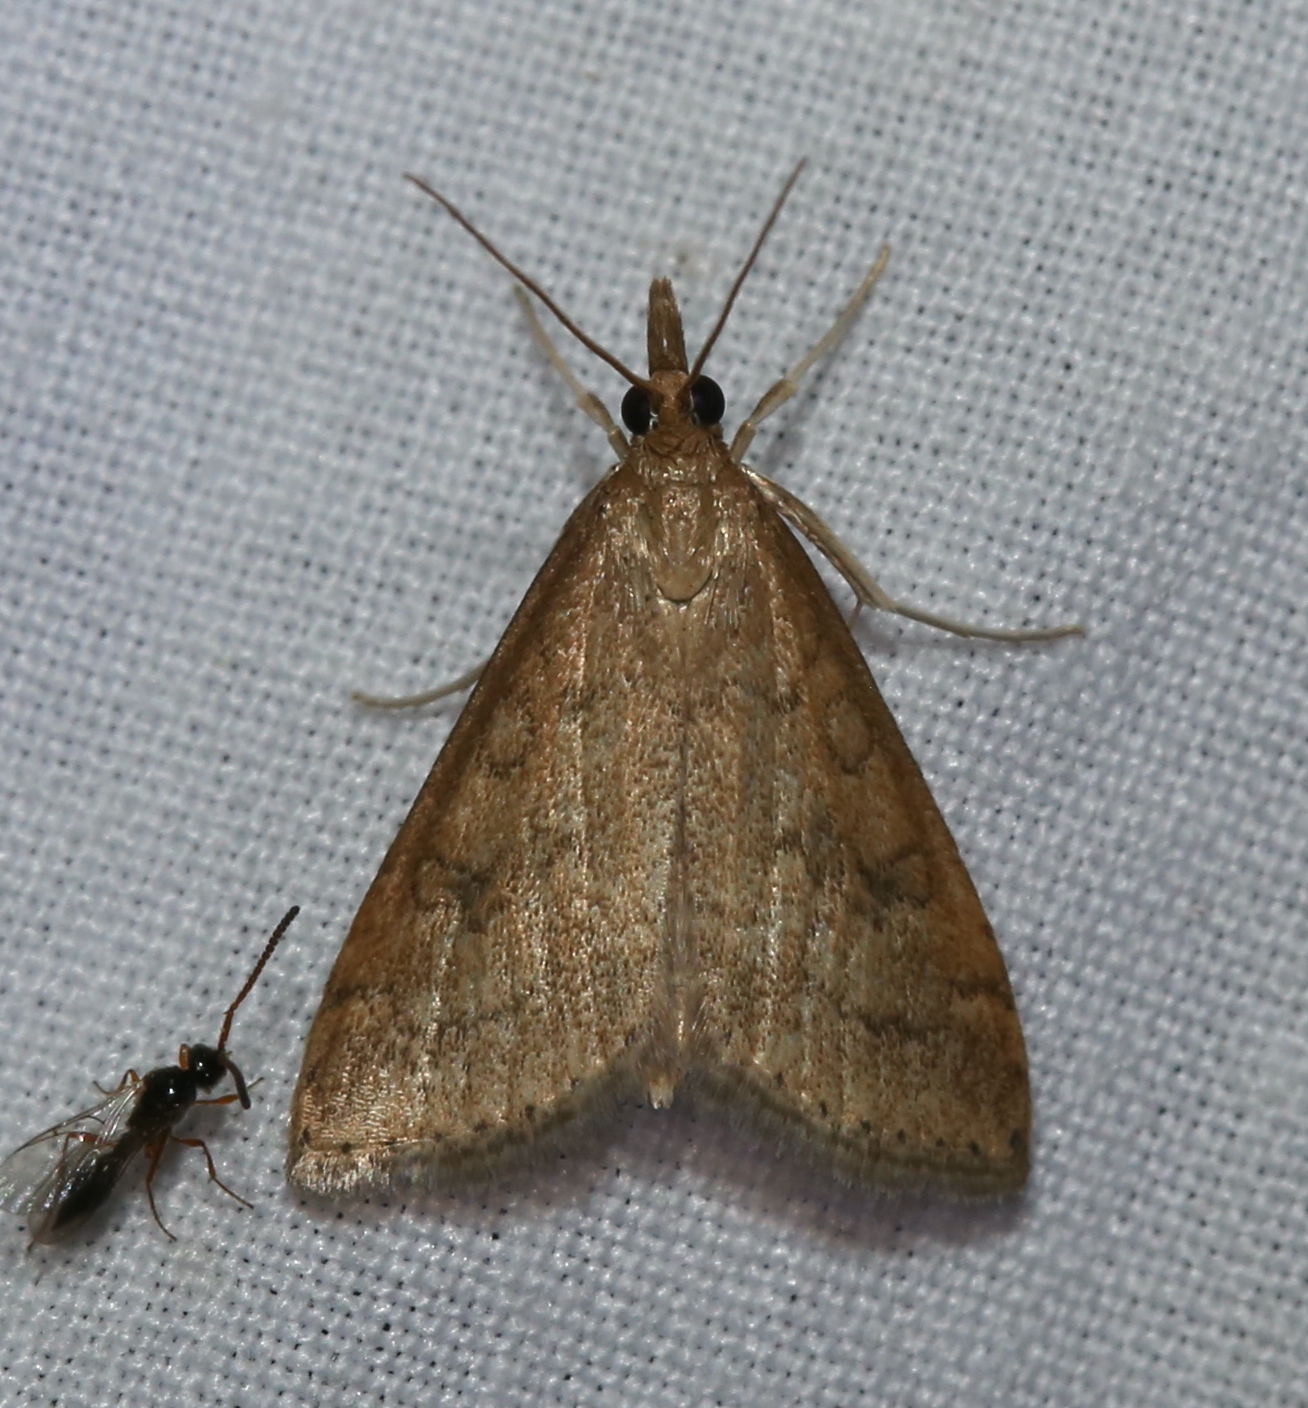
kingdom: Animalia
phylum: Arthropoda
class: Insecta
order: Lepidoptera
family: Crambidae
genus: Udea
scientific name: Udea rubigalis
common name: Celery leaftier moth
